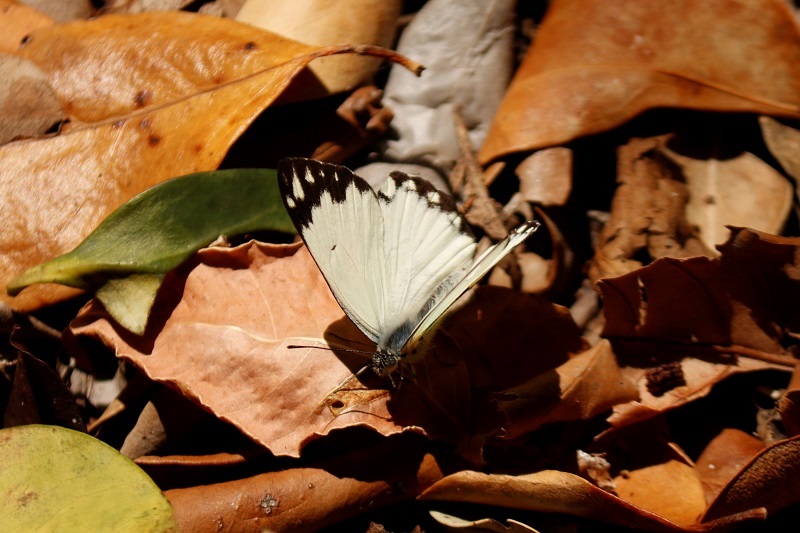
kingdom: Animalia
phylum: Arthropoda
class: Insecta
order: Lepidoptera
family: Pieridae
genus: Belenois
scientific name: Belenois creona
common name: African caper white
